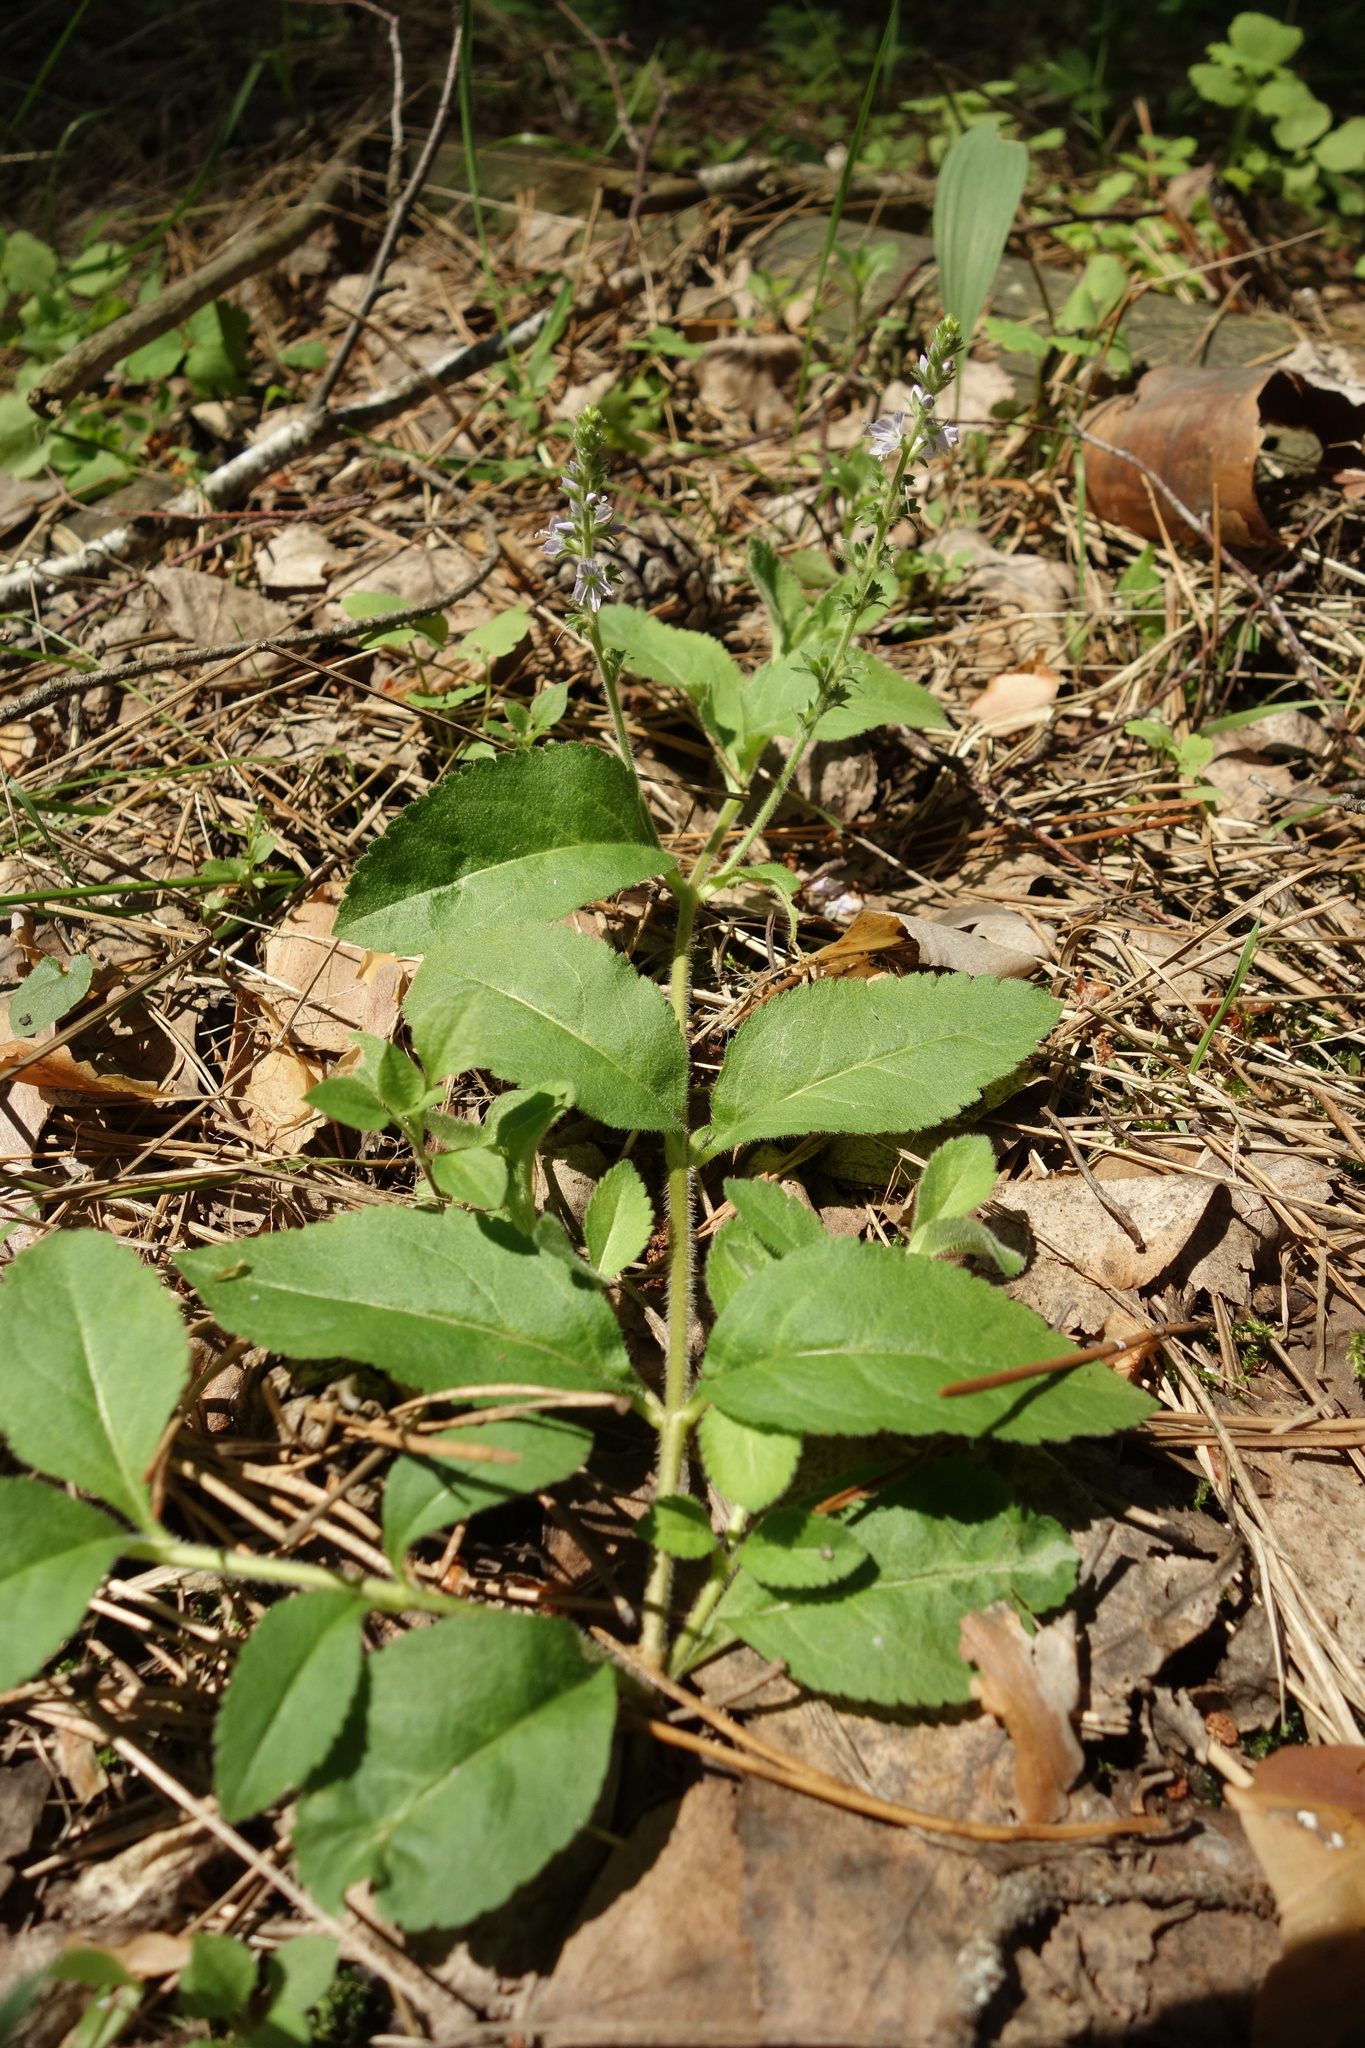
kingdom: Plantae
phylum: Tracheophyta
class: Magnoliopsida
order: Lamiales
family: Plantaginaceae
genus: Veronica
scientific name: Veronica officinalis
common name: Common speedwell
